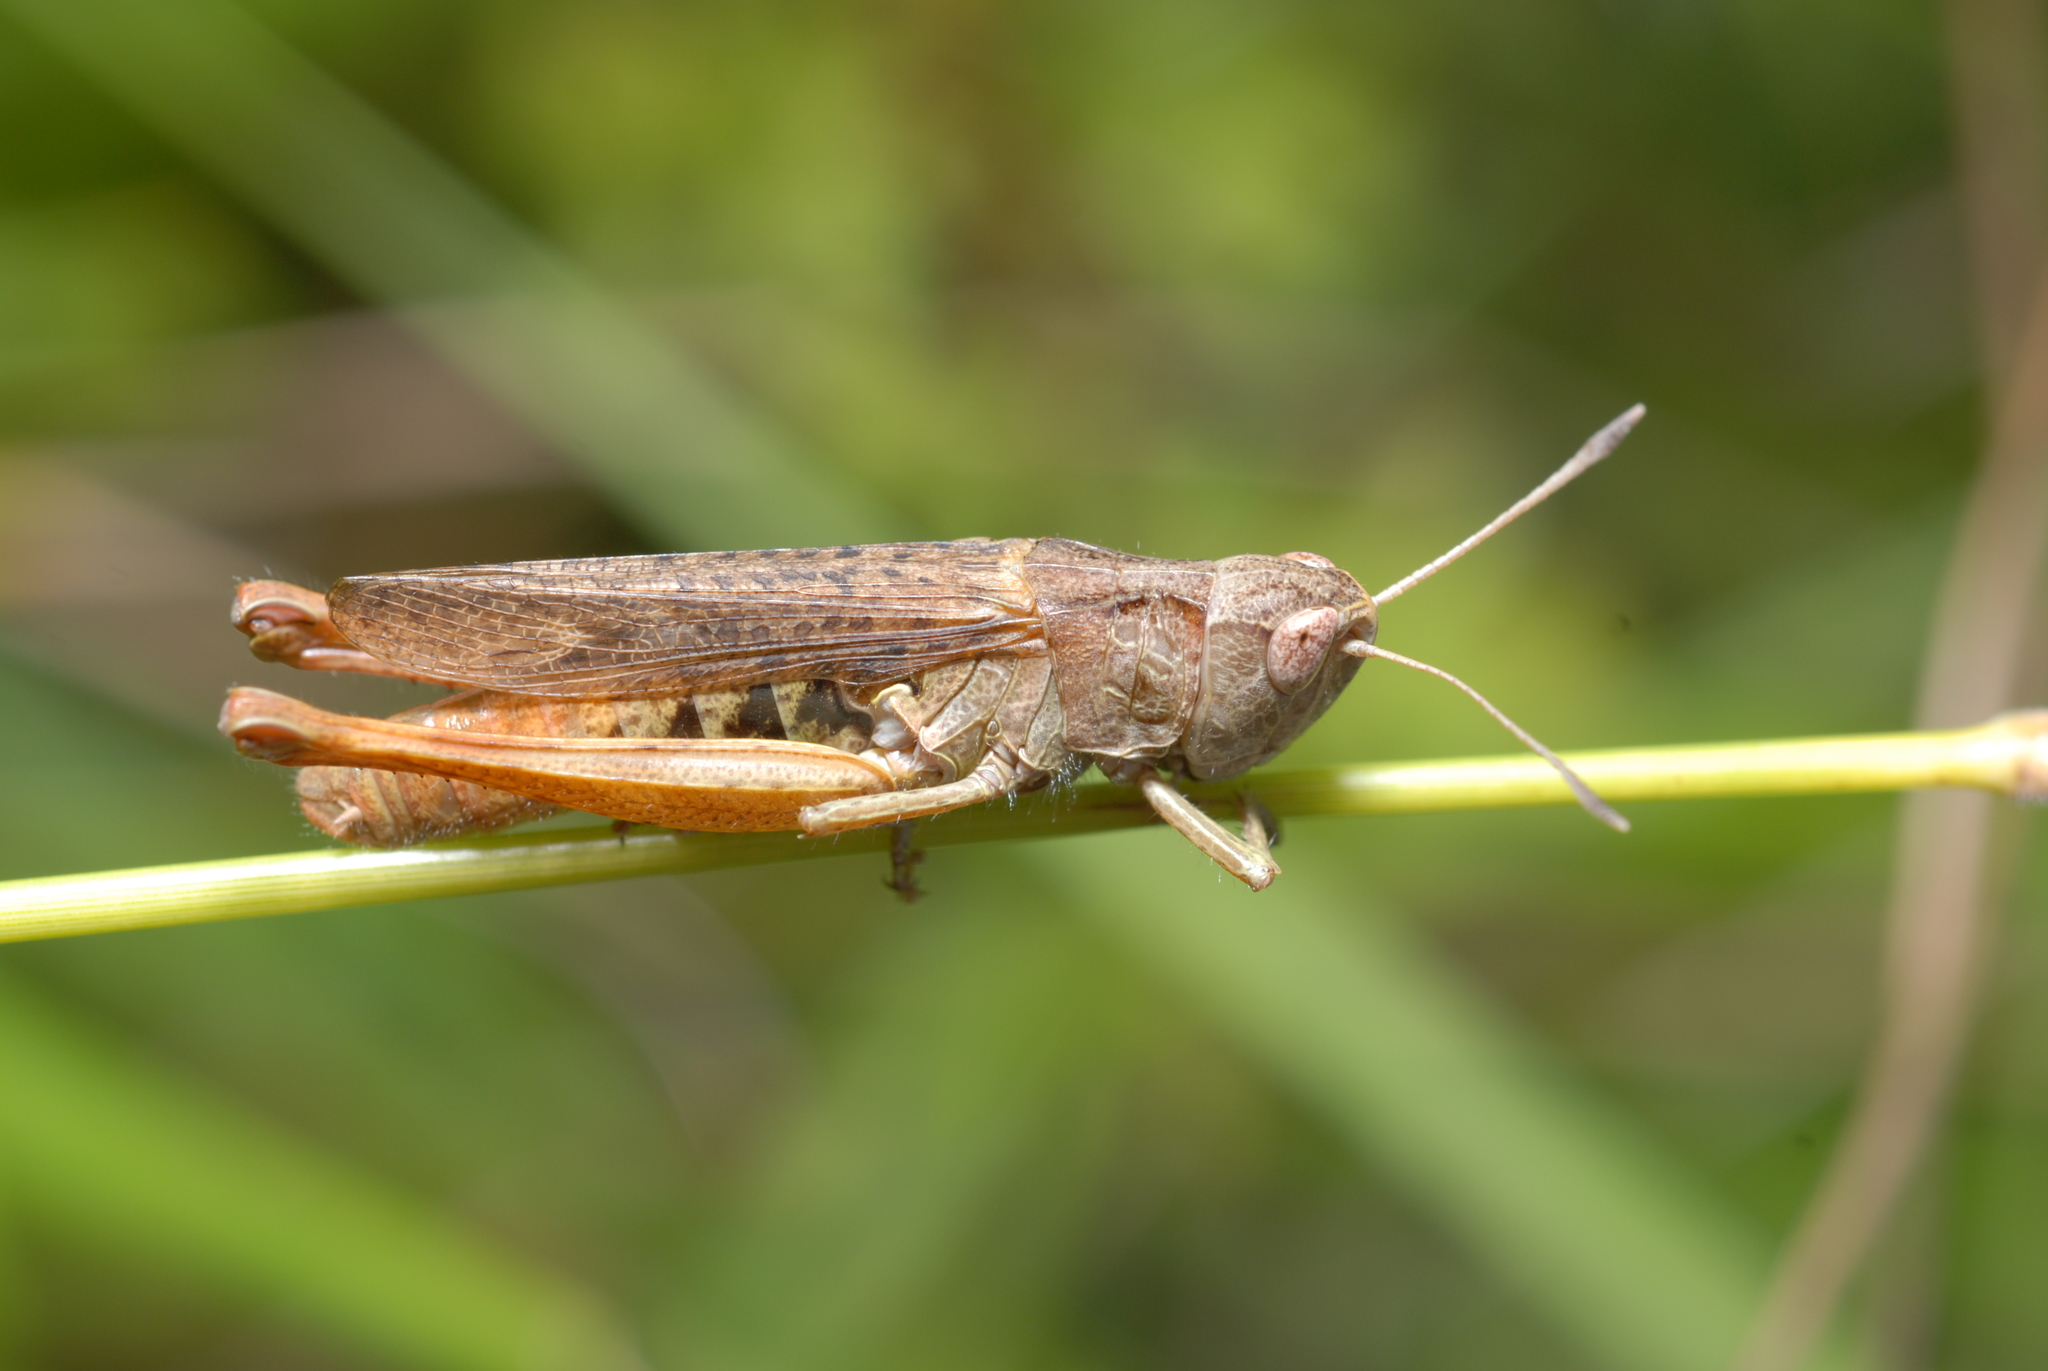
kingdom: Animalia
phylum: Arthropoda
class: Insecta
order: Orthoptera
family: Acrididae
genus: Chorthippus
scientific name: Chorthippus vagans
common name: Heath grasshopper
